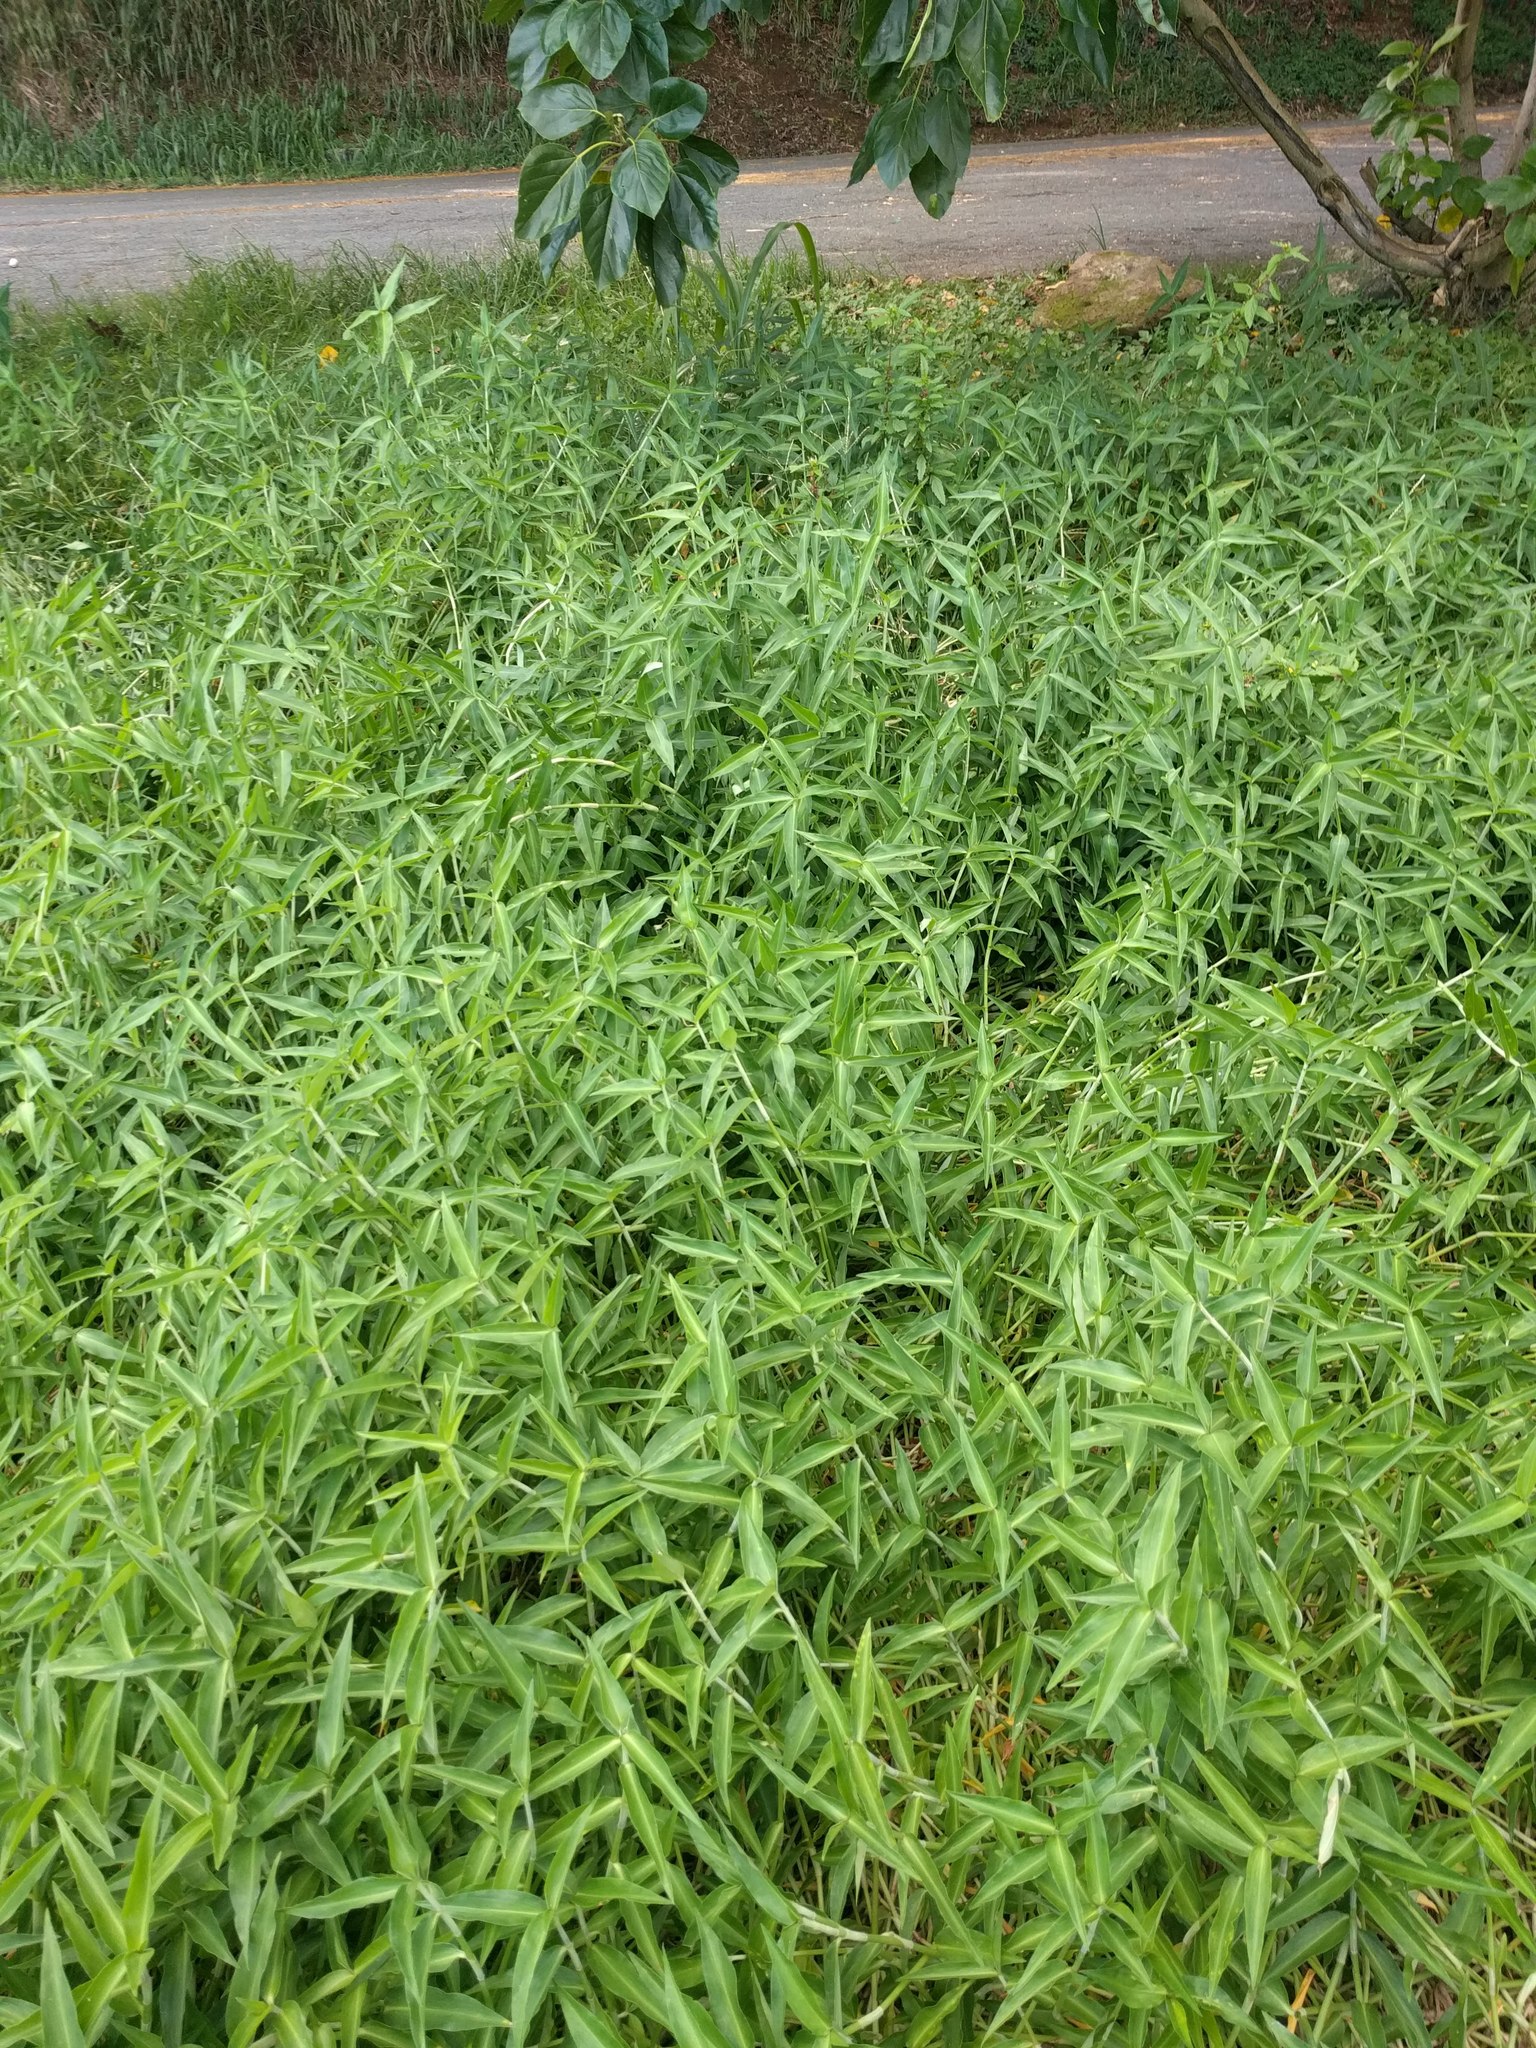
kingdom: Plantae
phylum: Tracheophyta
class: Liliopsida
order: Commelinales
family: Commelinaceae
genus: Commelina
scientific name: Commelina diffusa
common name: Climbing dayflower
